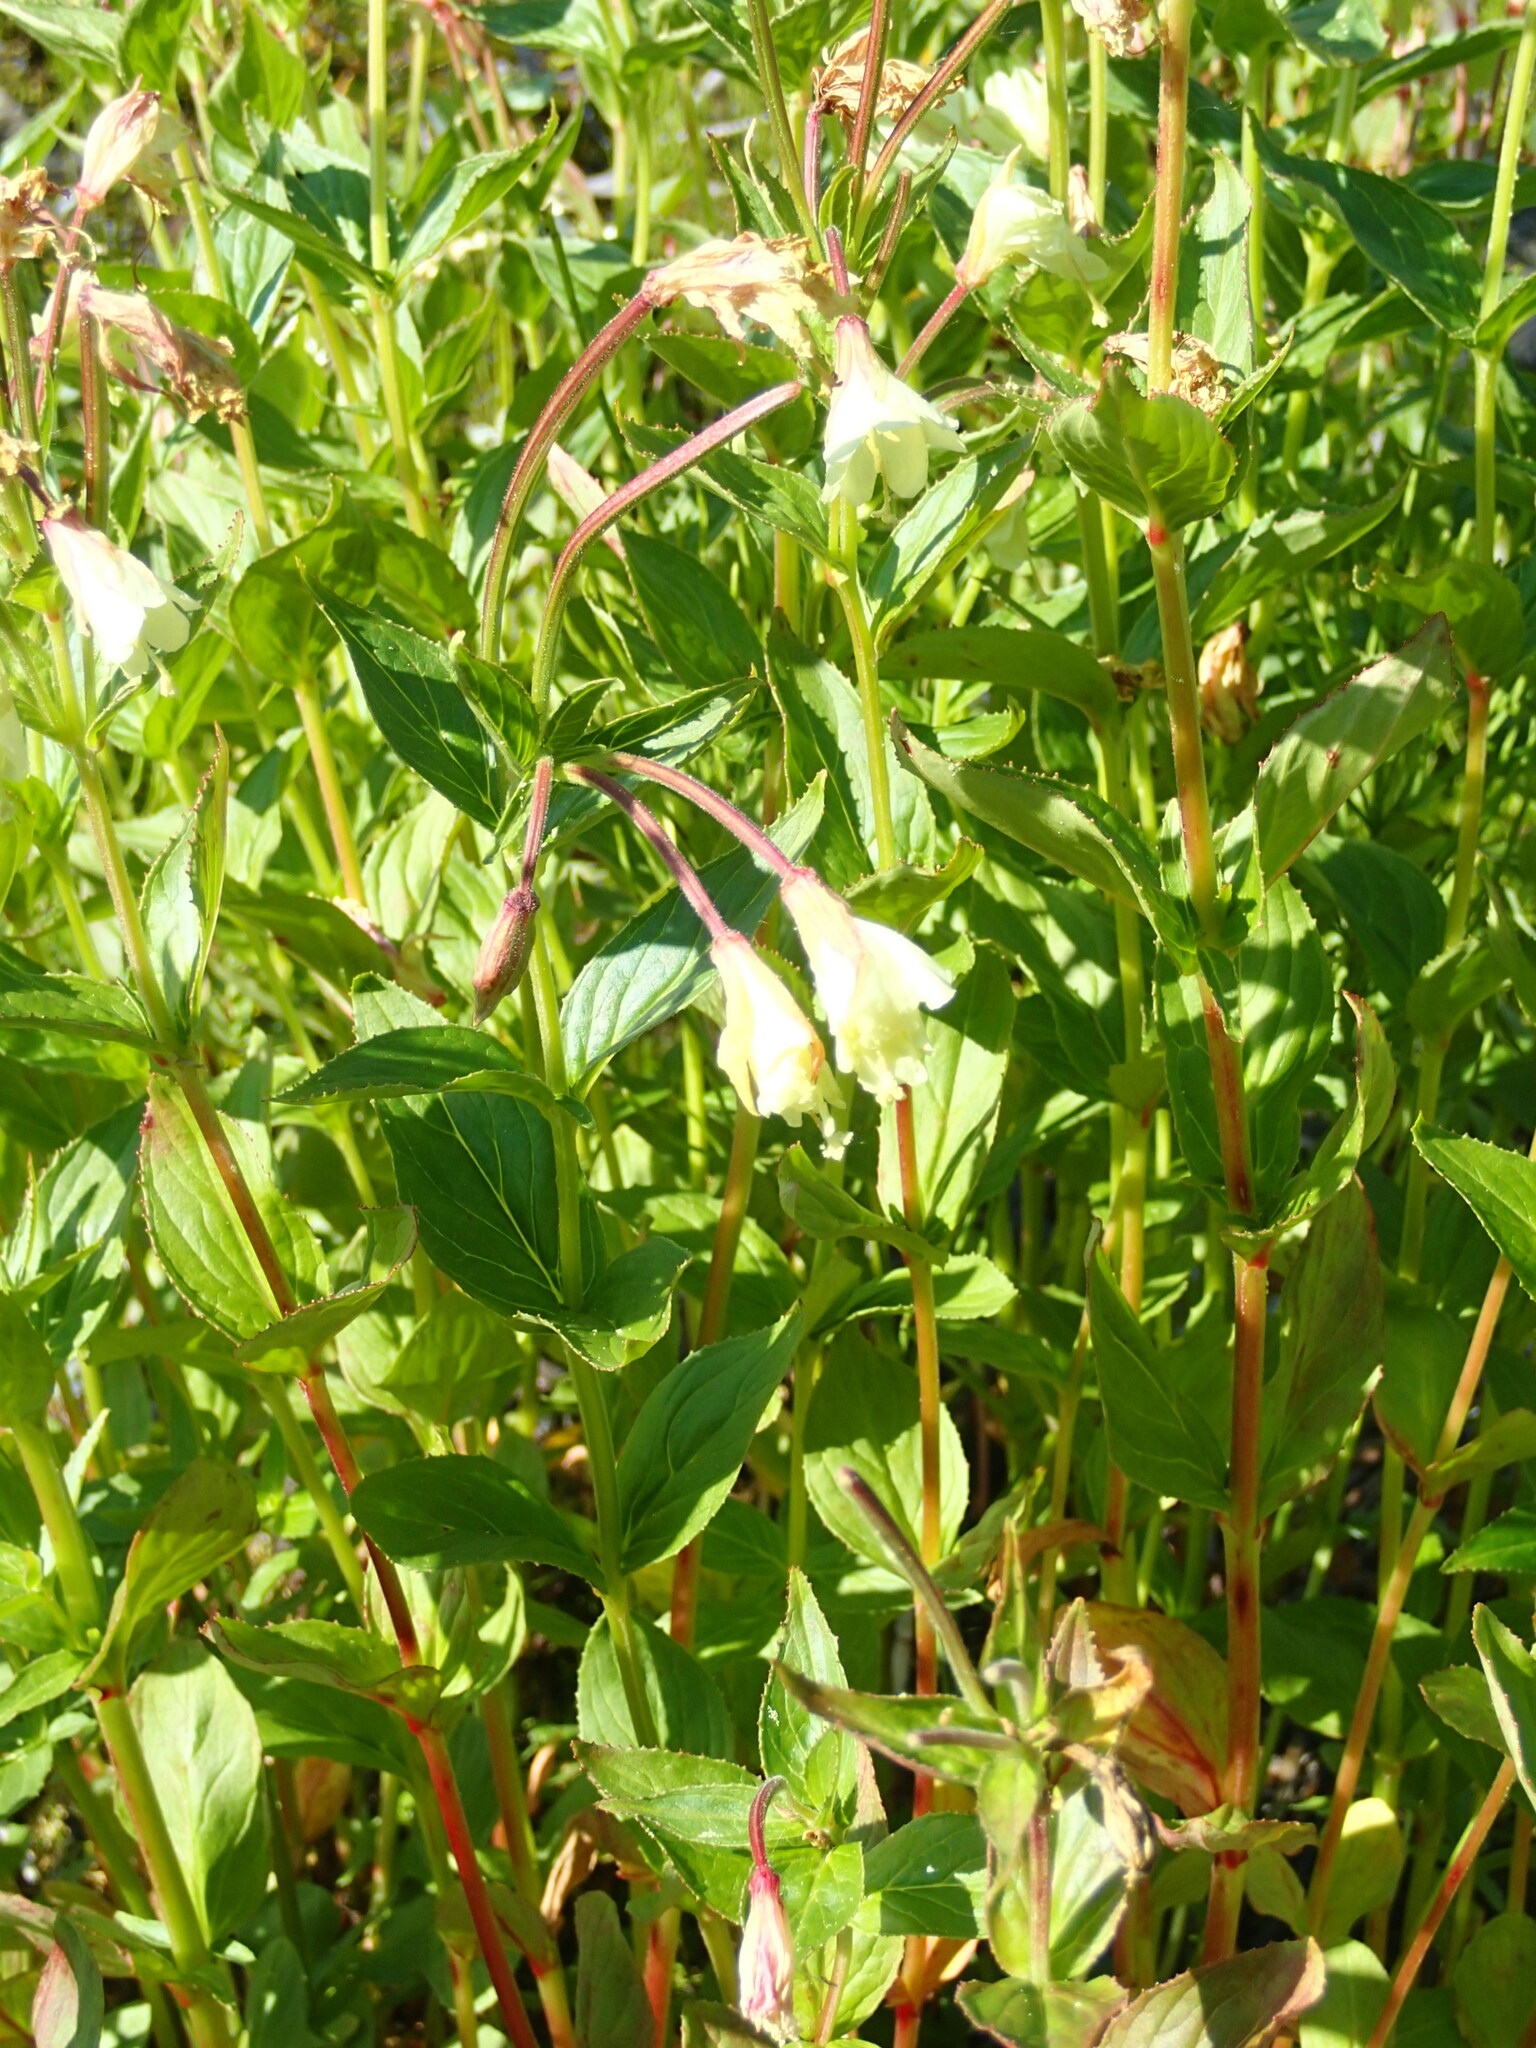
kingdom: Plantae
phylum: Tracheophyta
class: Magnoliopsida
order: Myrtales
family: Onagraceae
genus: Epilobium
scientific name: Epilobium luteum
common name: Yellow willowherb
